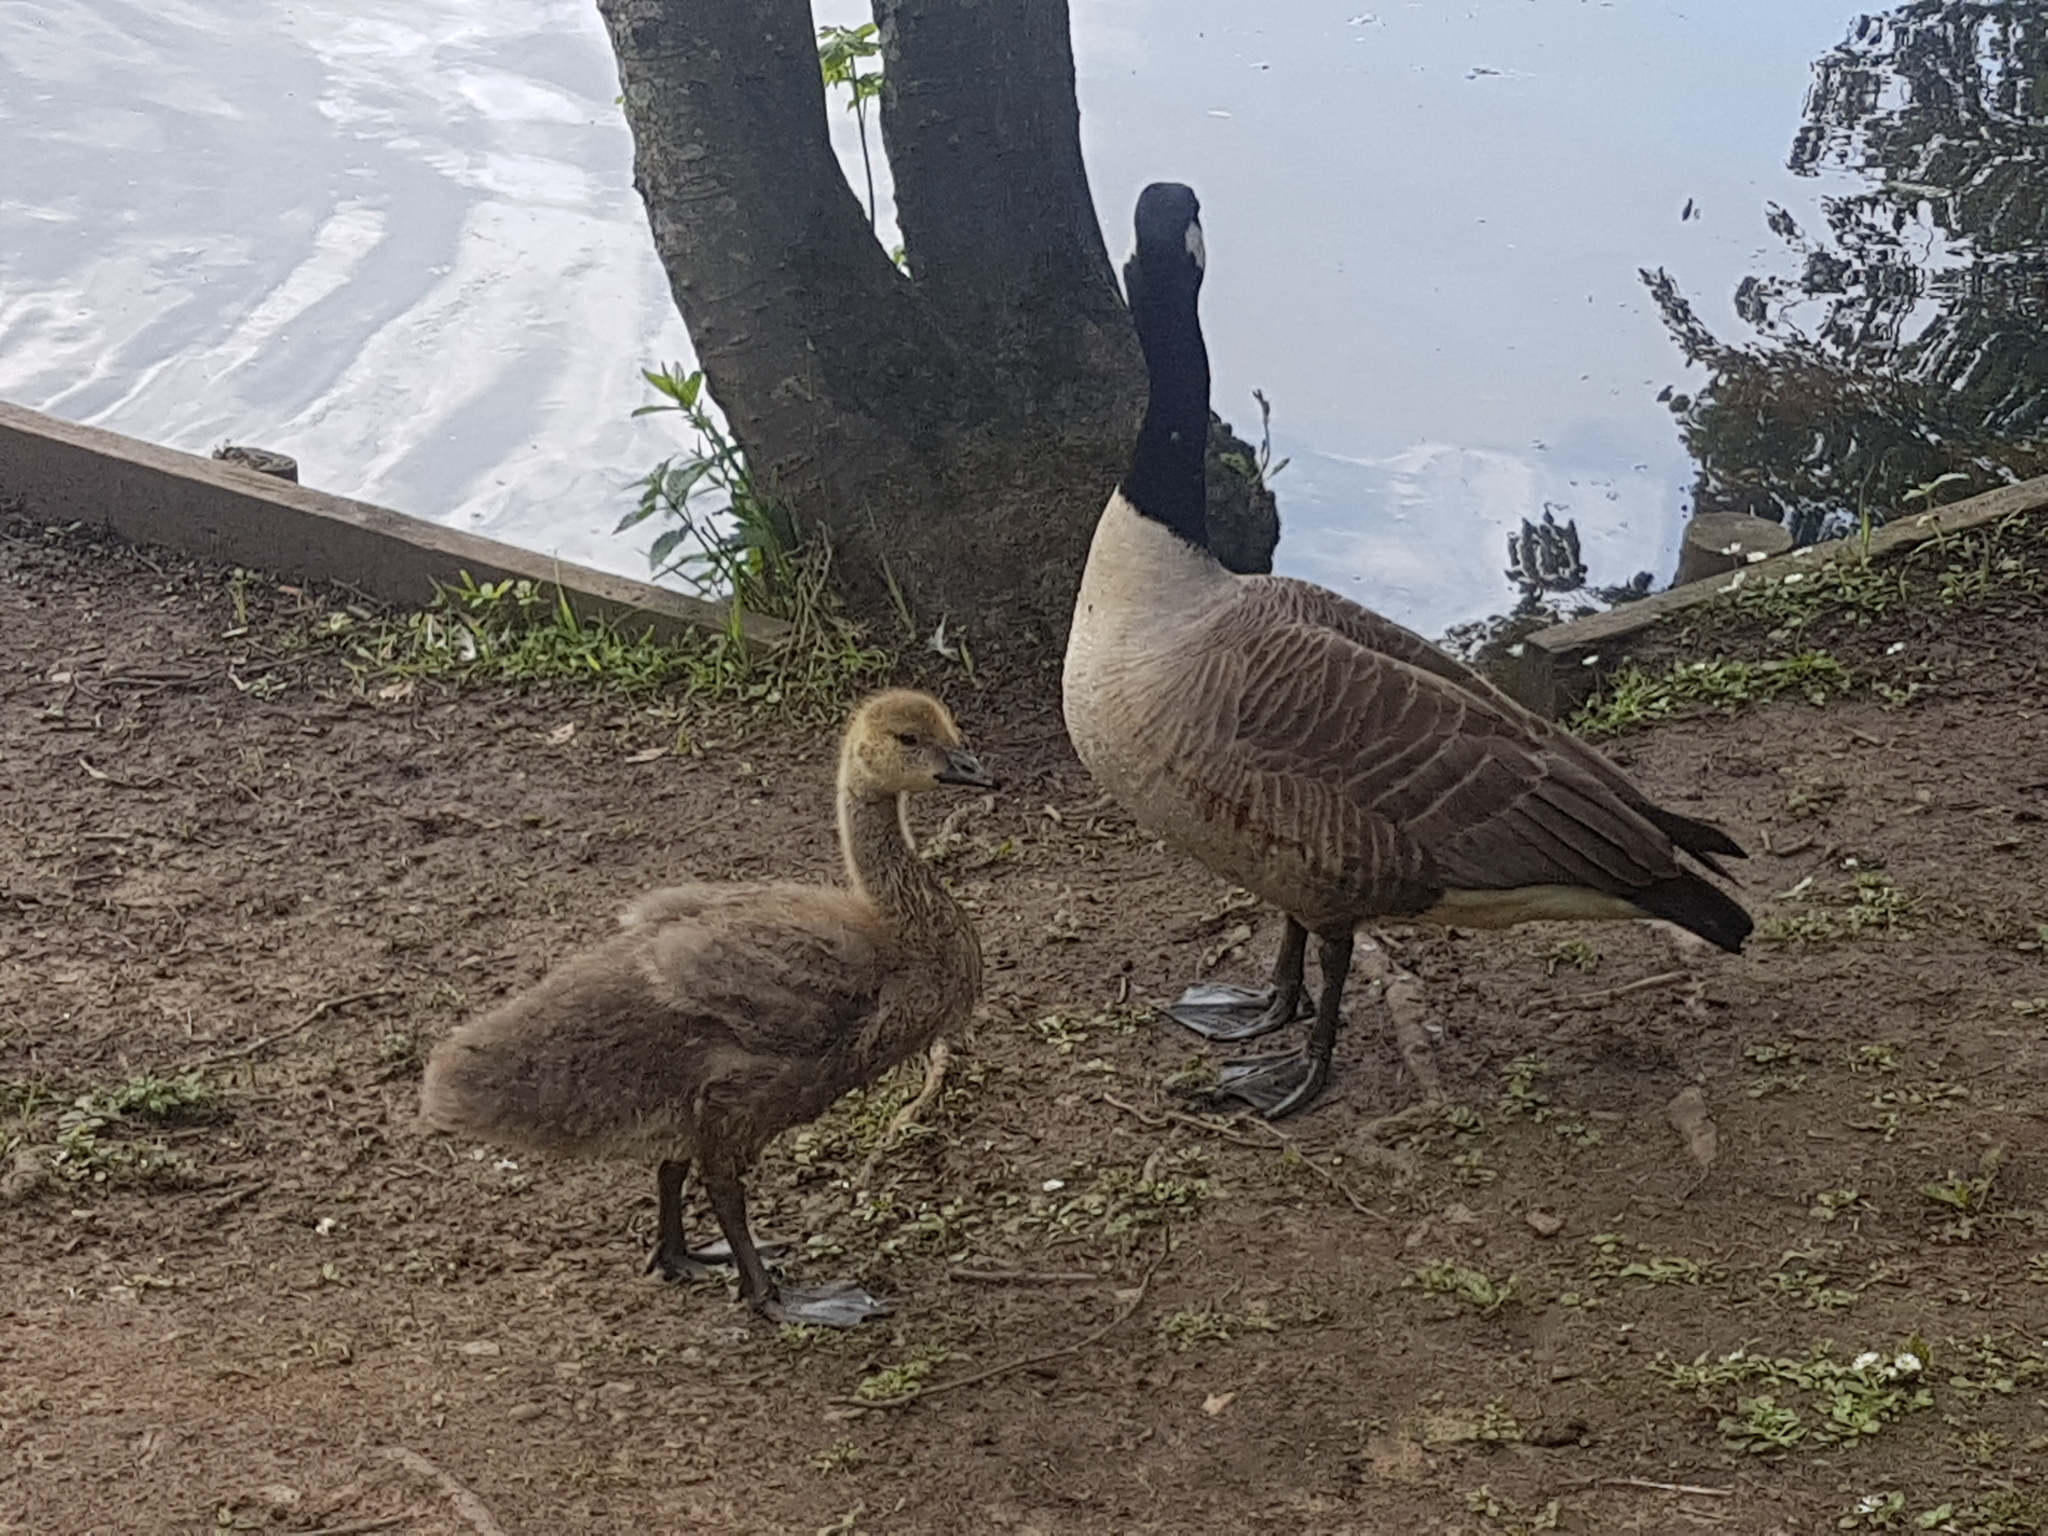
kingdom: Animalia
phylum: Chordata
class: Aves
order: Anseriformes
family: Anatidae
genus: Branta
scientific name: Branta canadensis
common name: Canada goose
